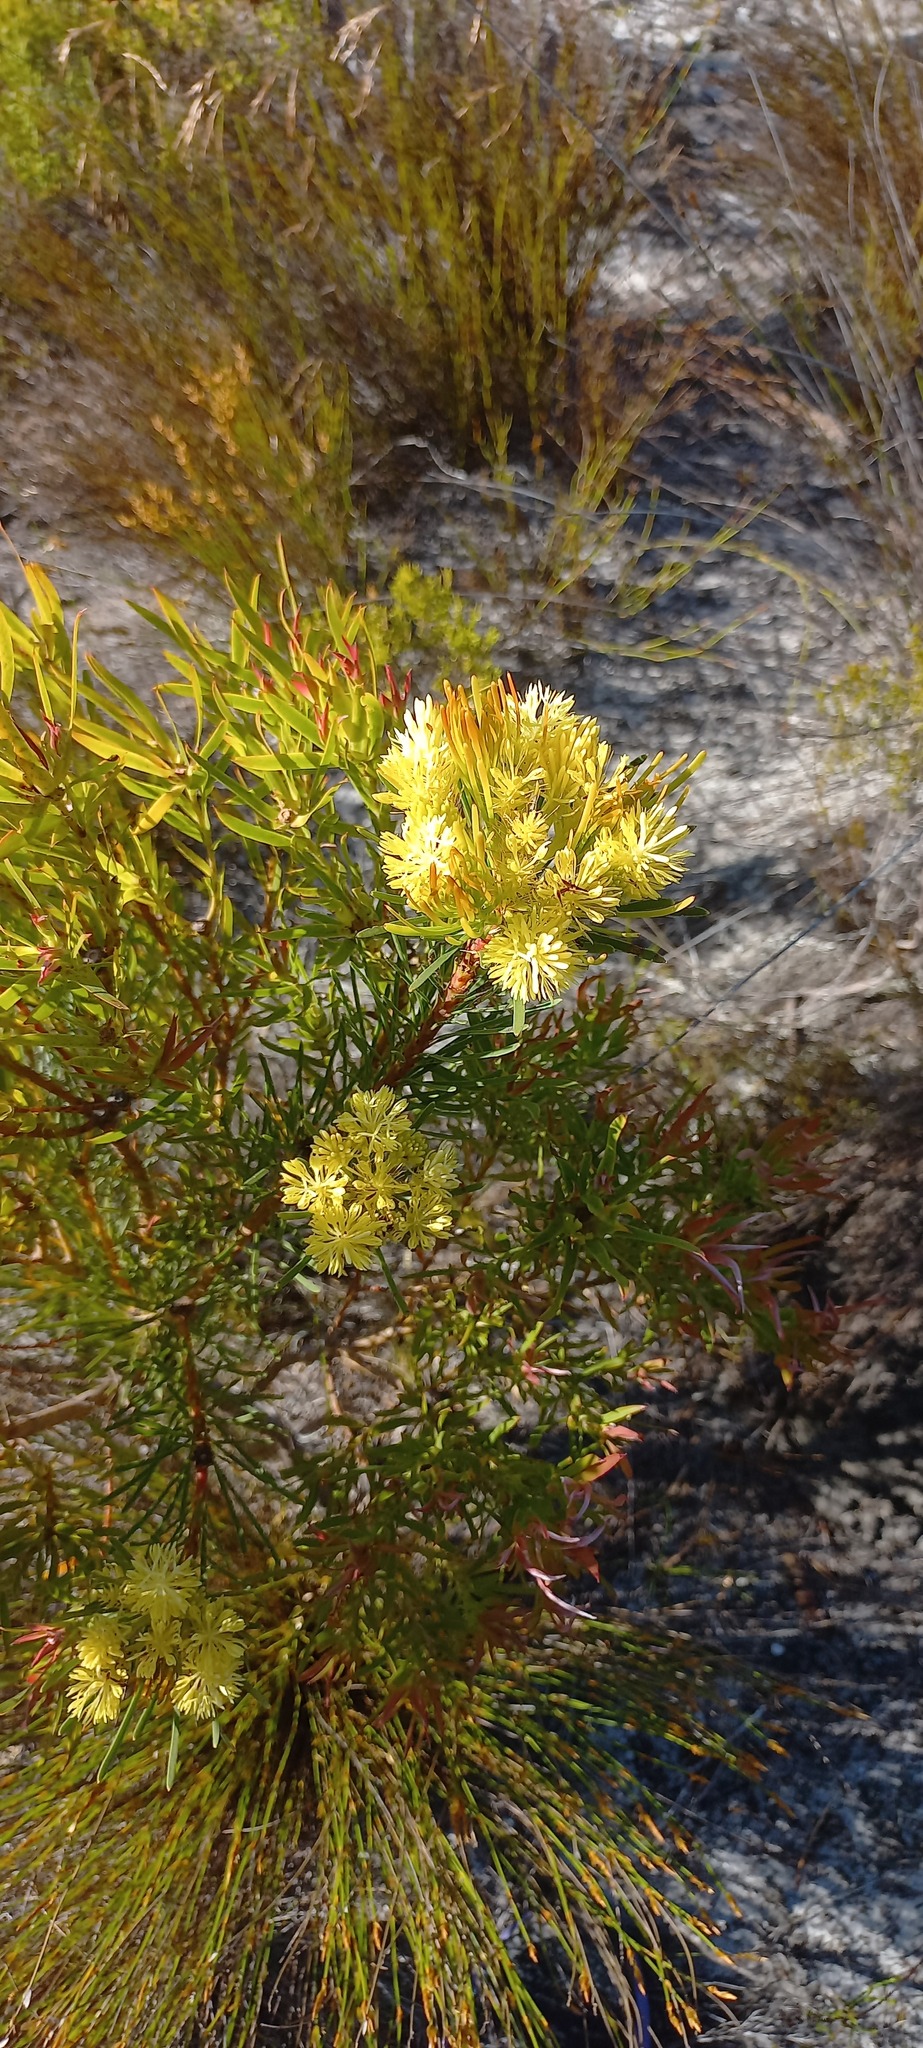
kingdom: Plantae
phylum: Tracheophyta
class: Magnoliopsida
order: Proteales
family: Proteaceae
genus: Aulax
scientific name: Aulax umbellata
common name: Broad-leaf featherbush
